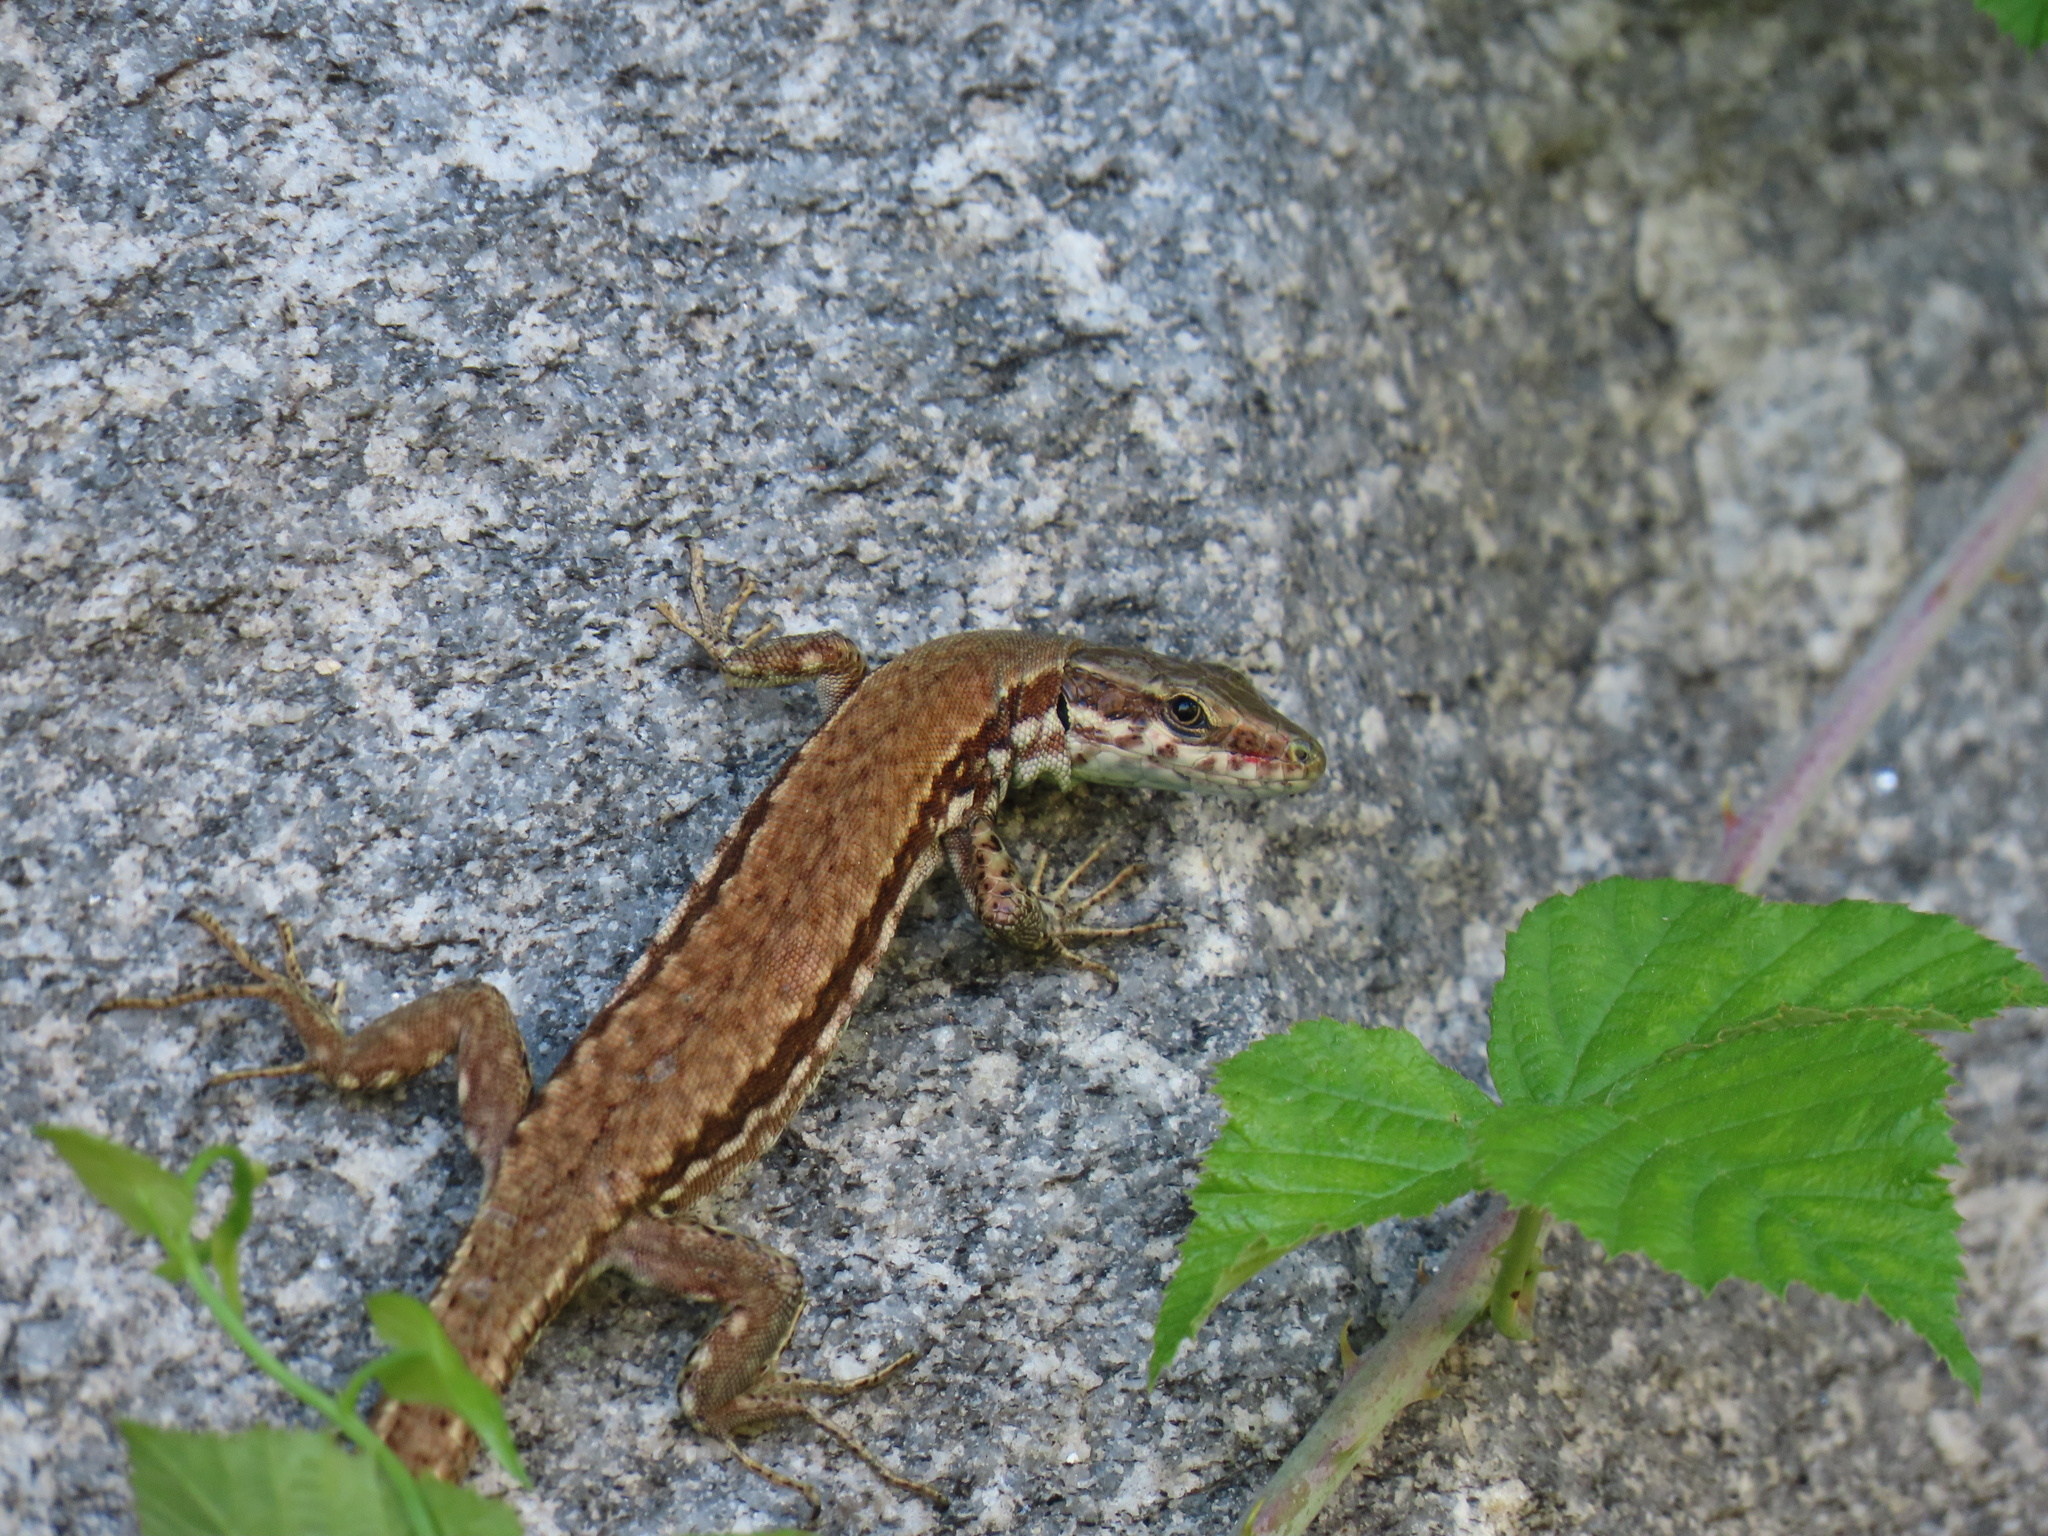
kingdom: Animalia
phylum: Chordata
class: Squamata
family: Lacertidae
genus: Podarcis
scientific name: Podarcis muralis
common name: Common wall lizard
